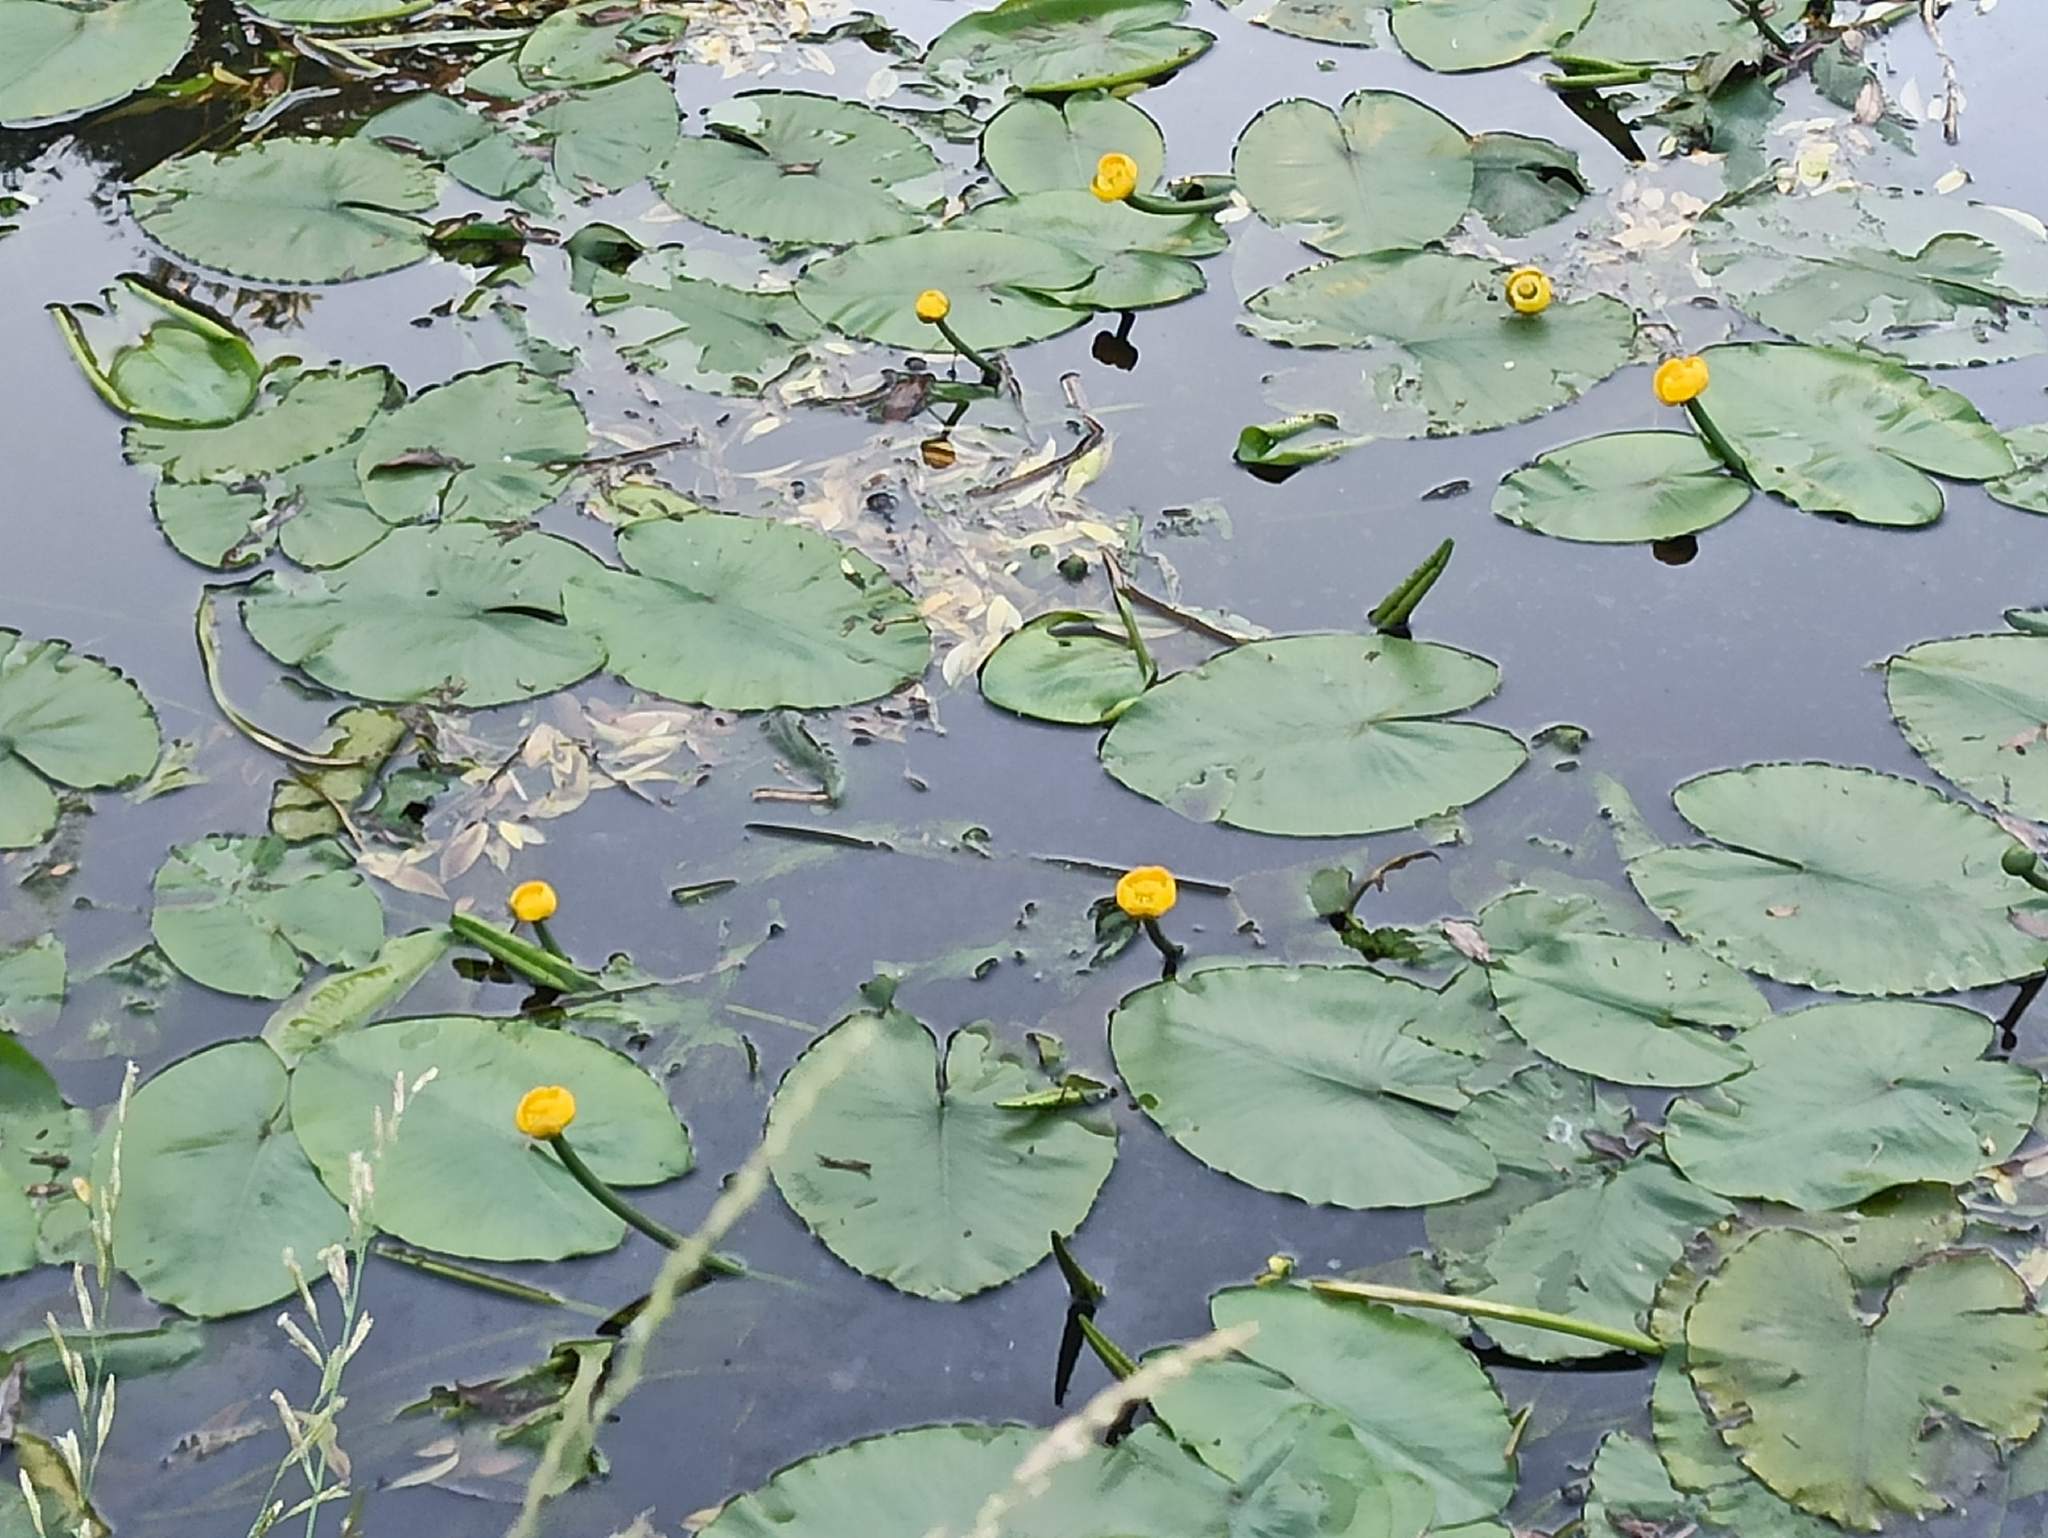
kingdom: Plantae
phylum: Tracheophyta
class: Magnoliopsida
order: Nymphaeales
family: Nymphaeaceae
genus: Nuphar
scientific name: Nuphar lutea
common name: Yellow water-lily
